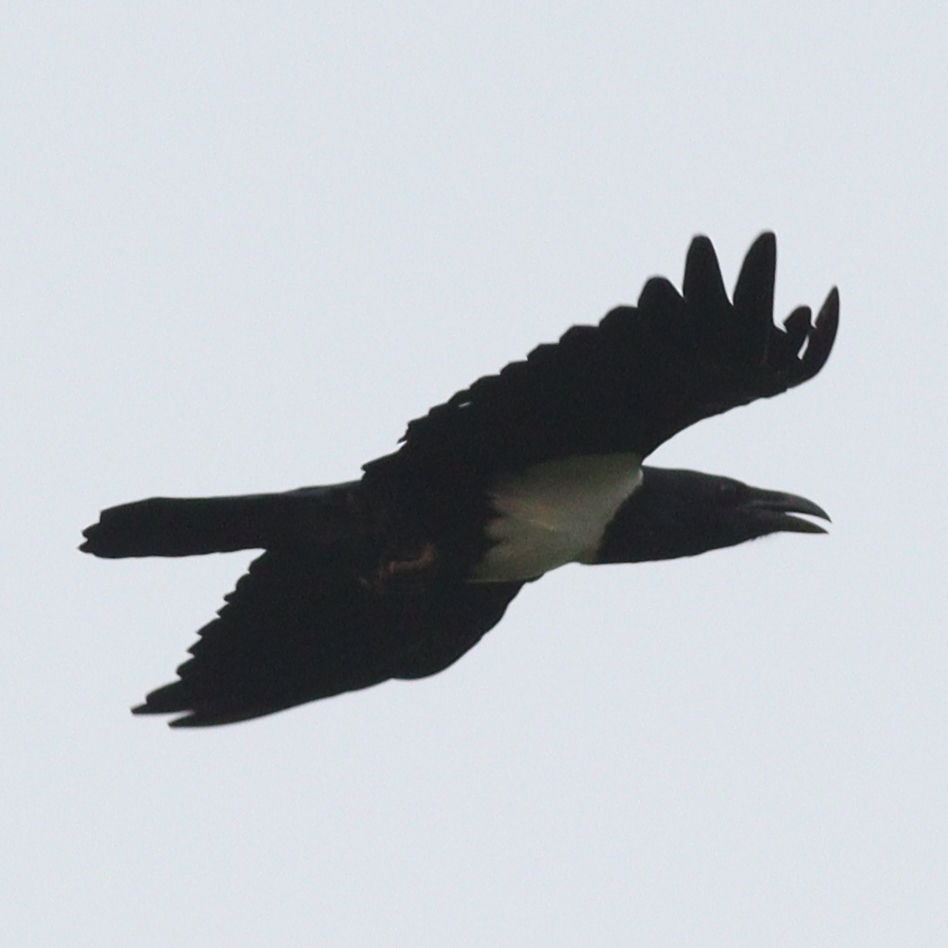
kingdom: Animalia
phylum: Chordata
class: Aves
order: Passeriformes
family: Corvidae
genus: Corvus
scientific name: Corvus albus
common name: Pied crow
